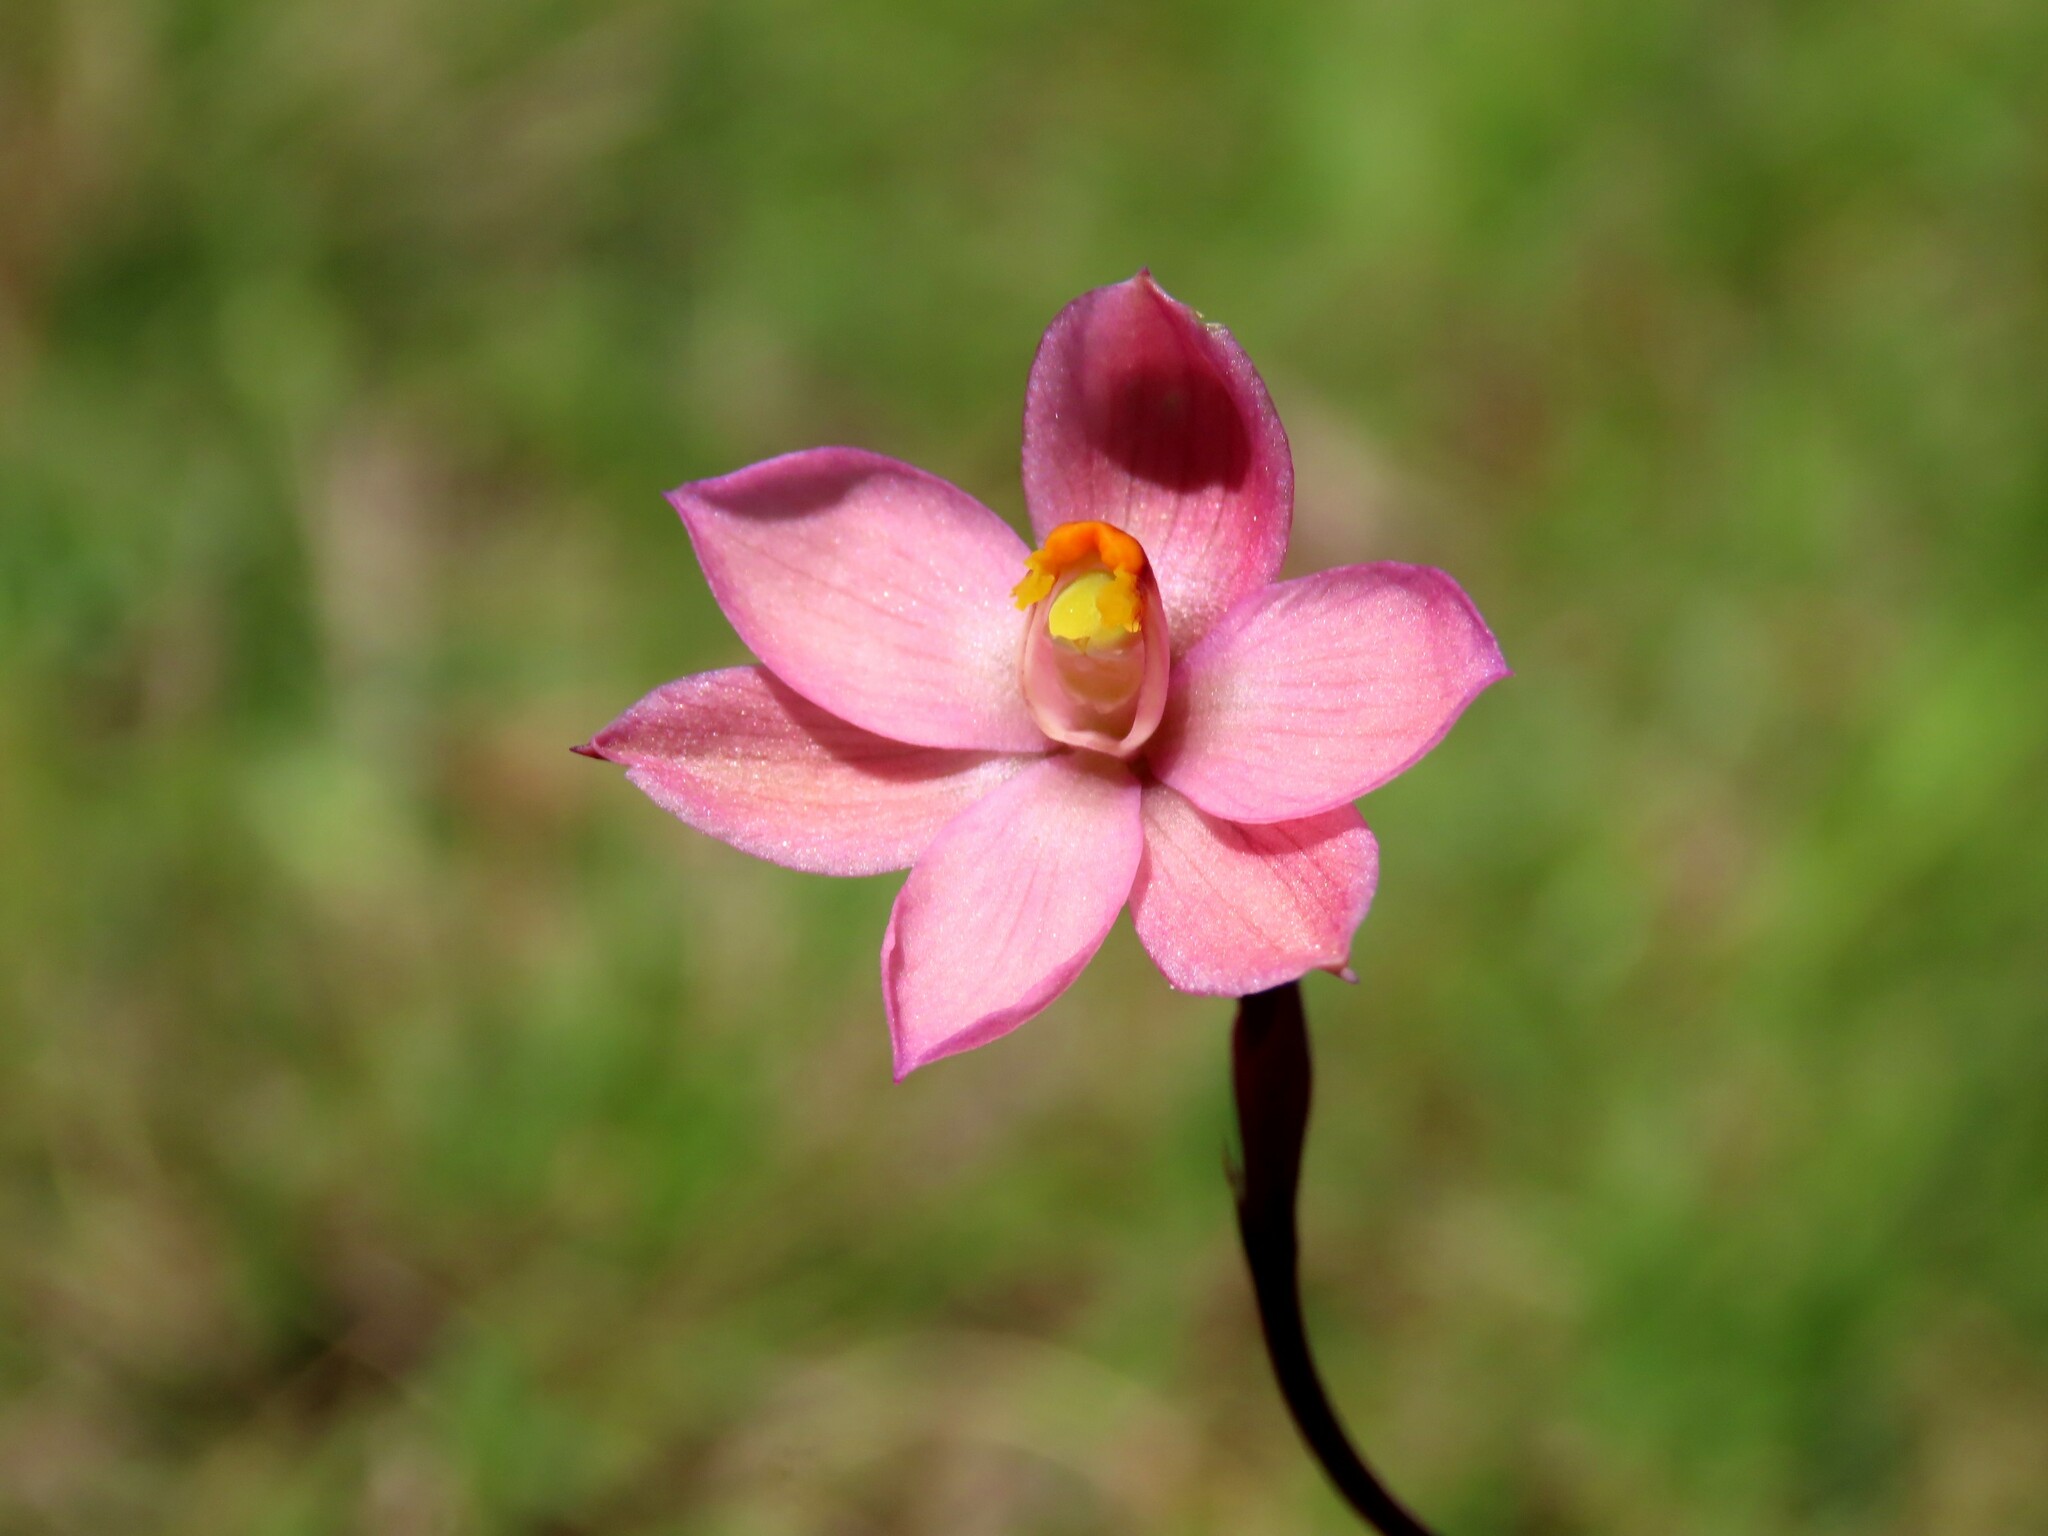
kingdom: Plantae
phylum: Tracheophyta
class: Liliopsida
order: Asparagales
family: Orchidaceae
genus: Thelymitra
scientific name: Thelymitra rubra
